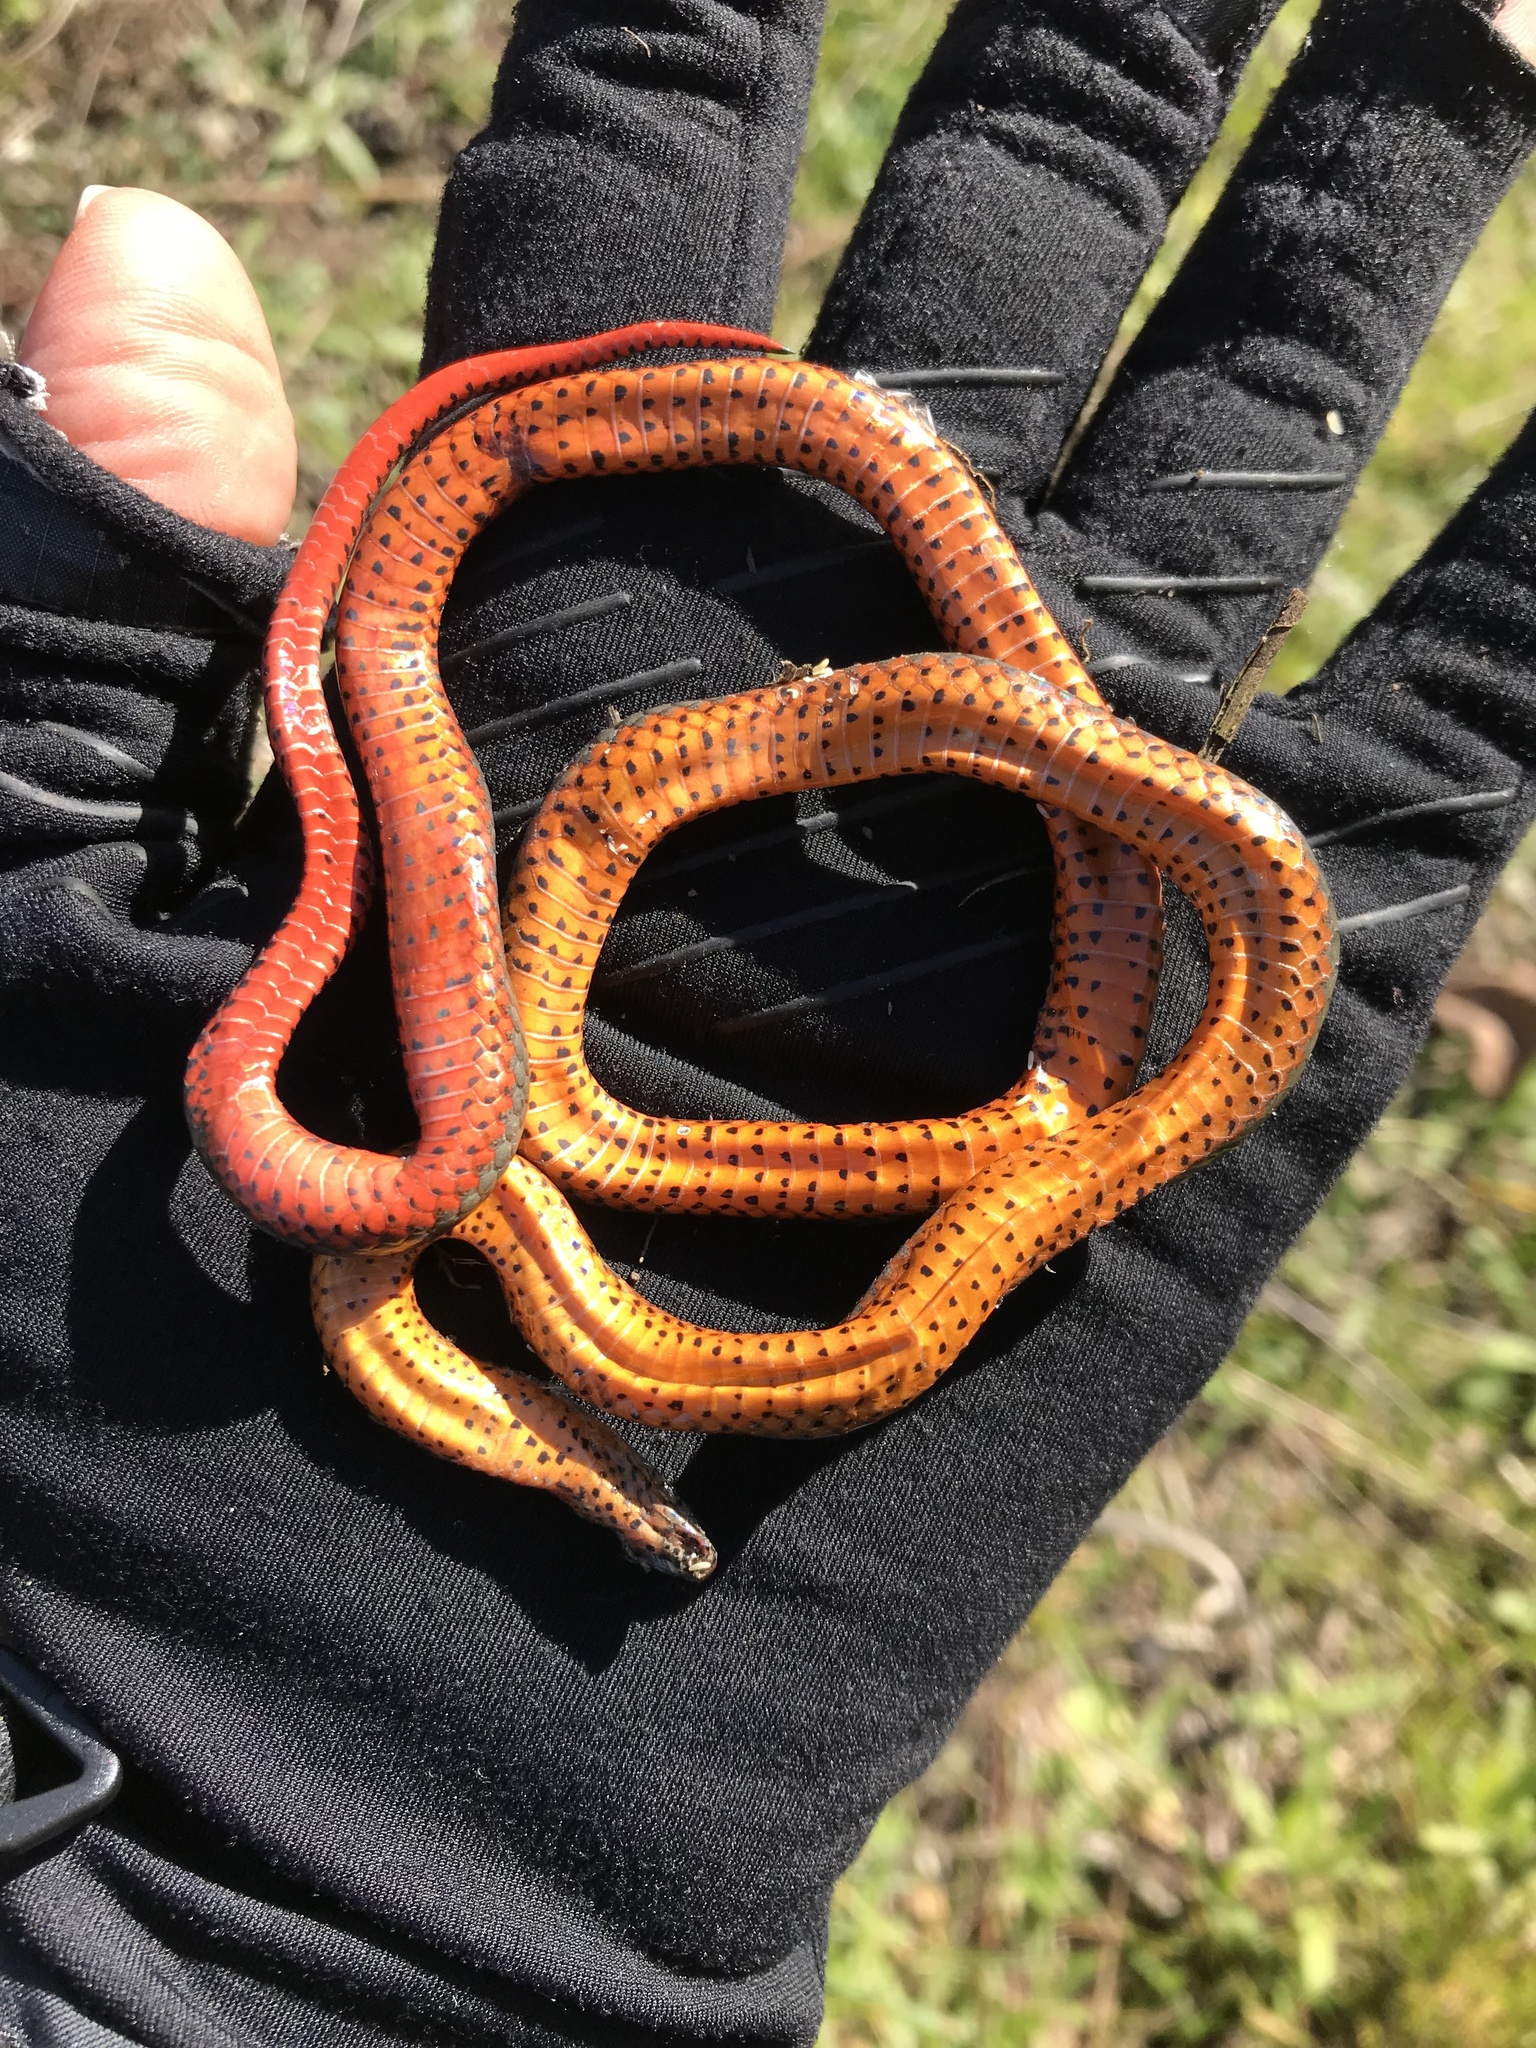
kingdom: Animalia
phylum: Chordata
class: Squamata
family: Colubridae
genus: Diadophis
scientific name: Diadophis punctatus
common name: Ringneck snake
